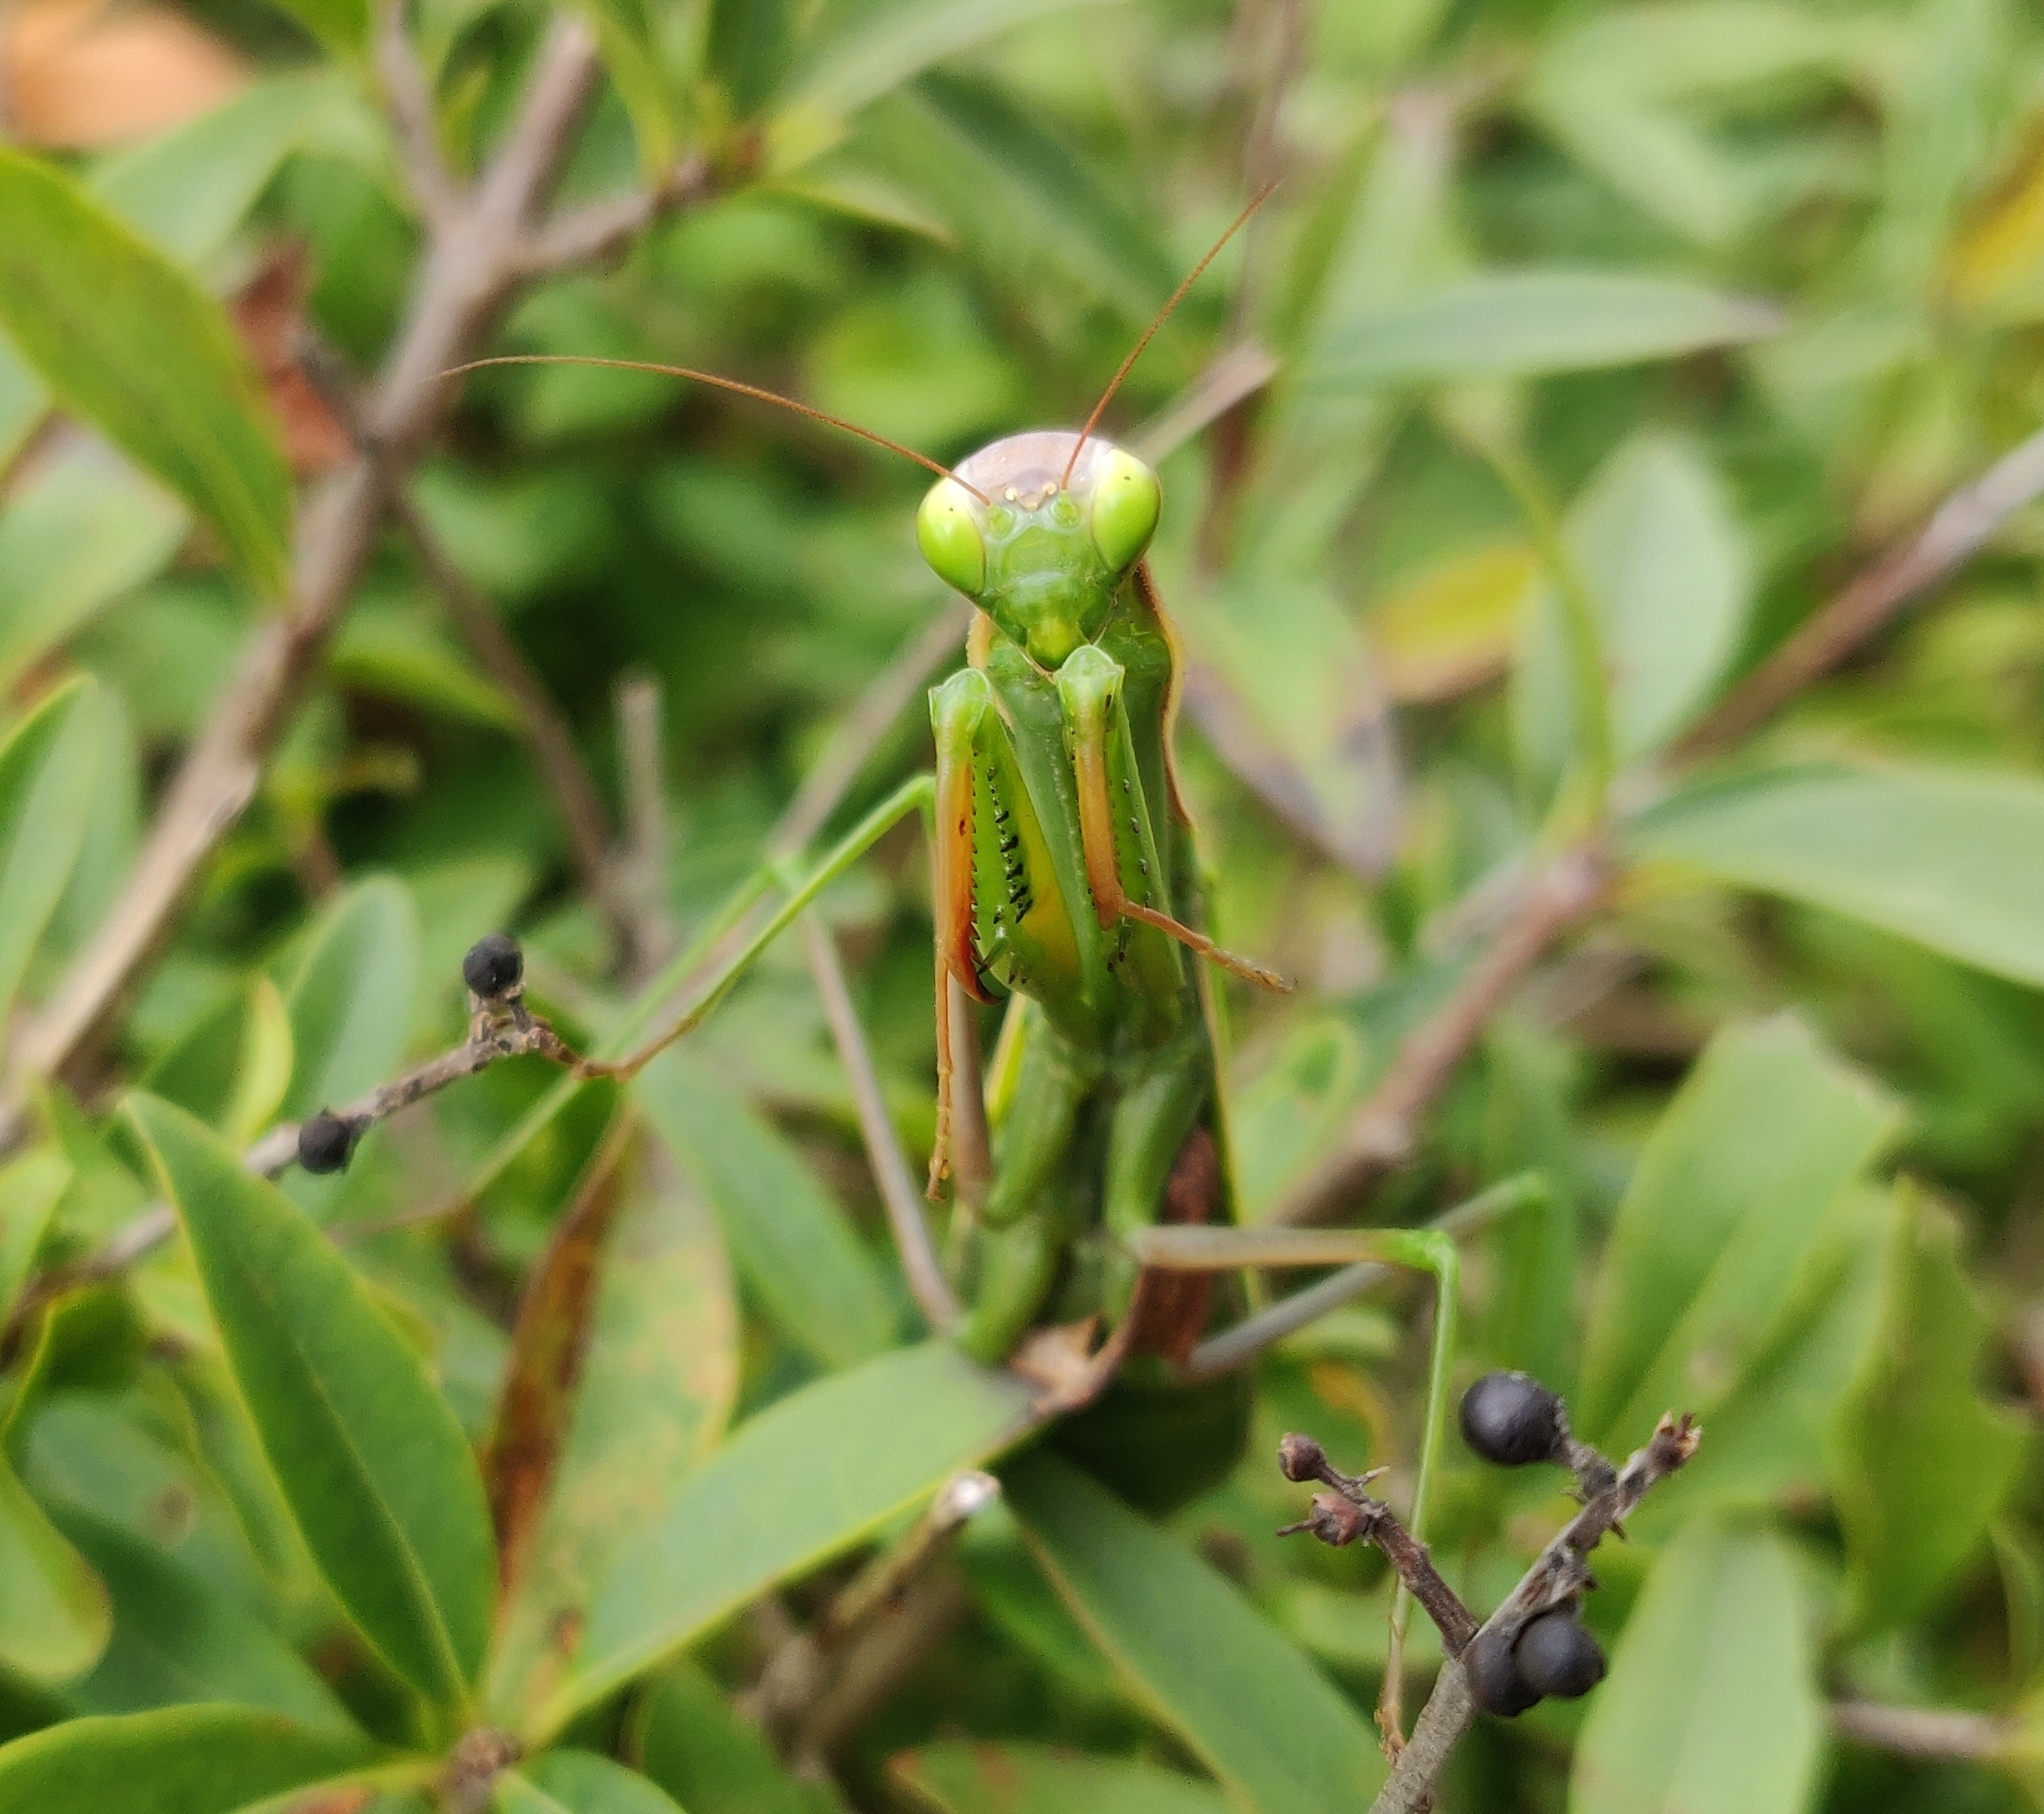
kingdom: Animalia
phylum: Arthropoda
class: Insecta
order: Mantodea
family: Mantidae
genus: Mantis
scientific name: Mantis religiosa
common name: Praying mantis
